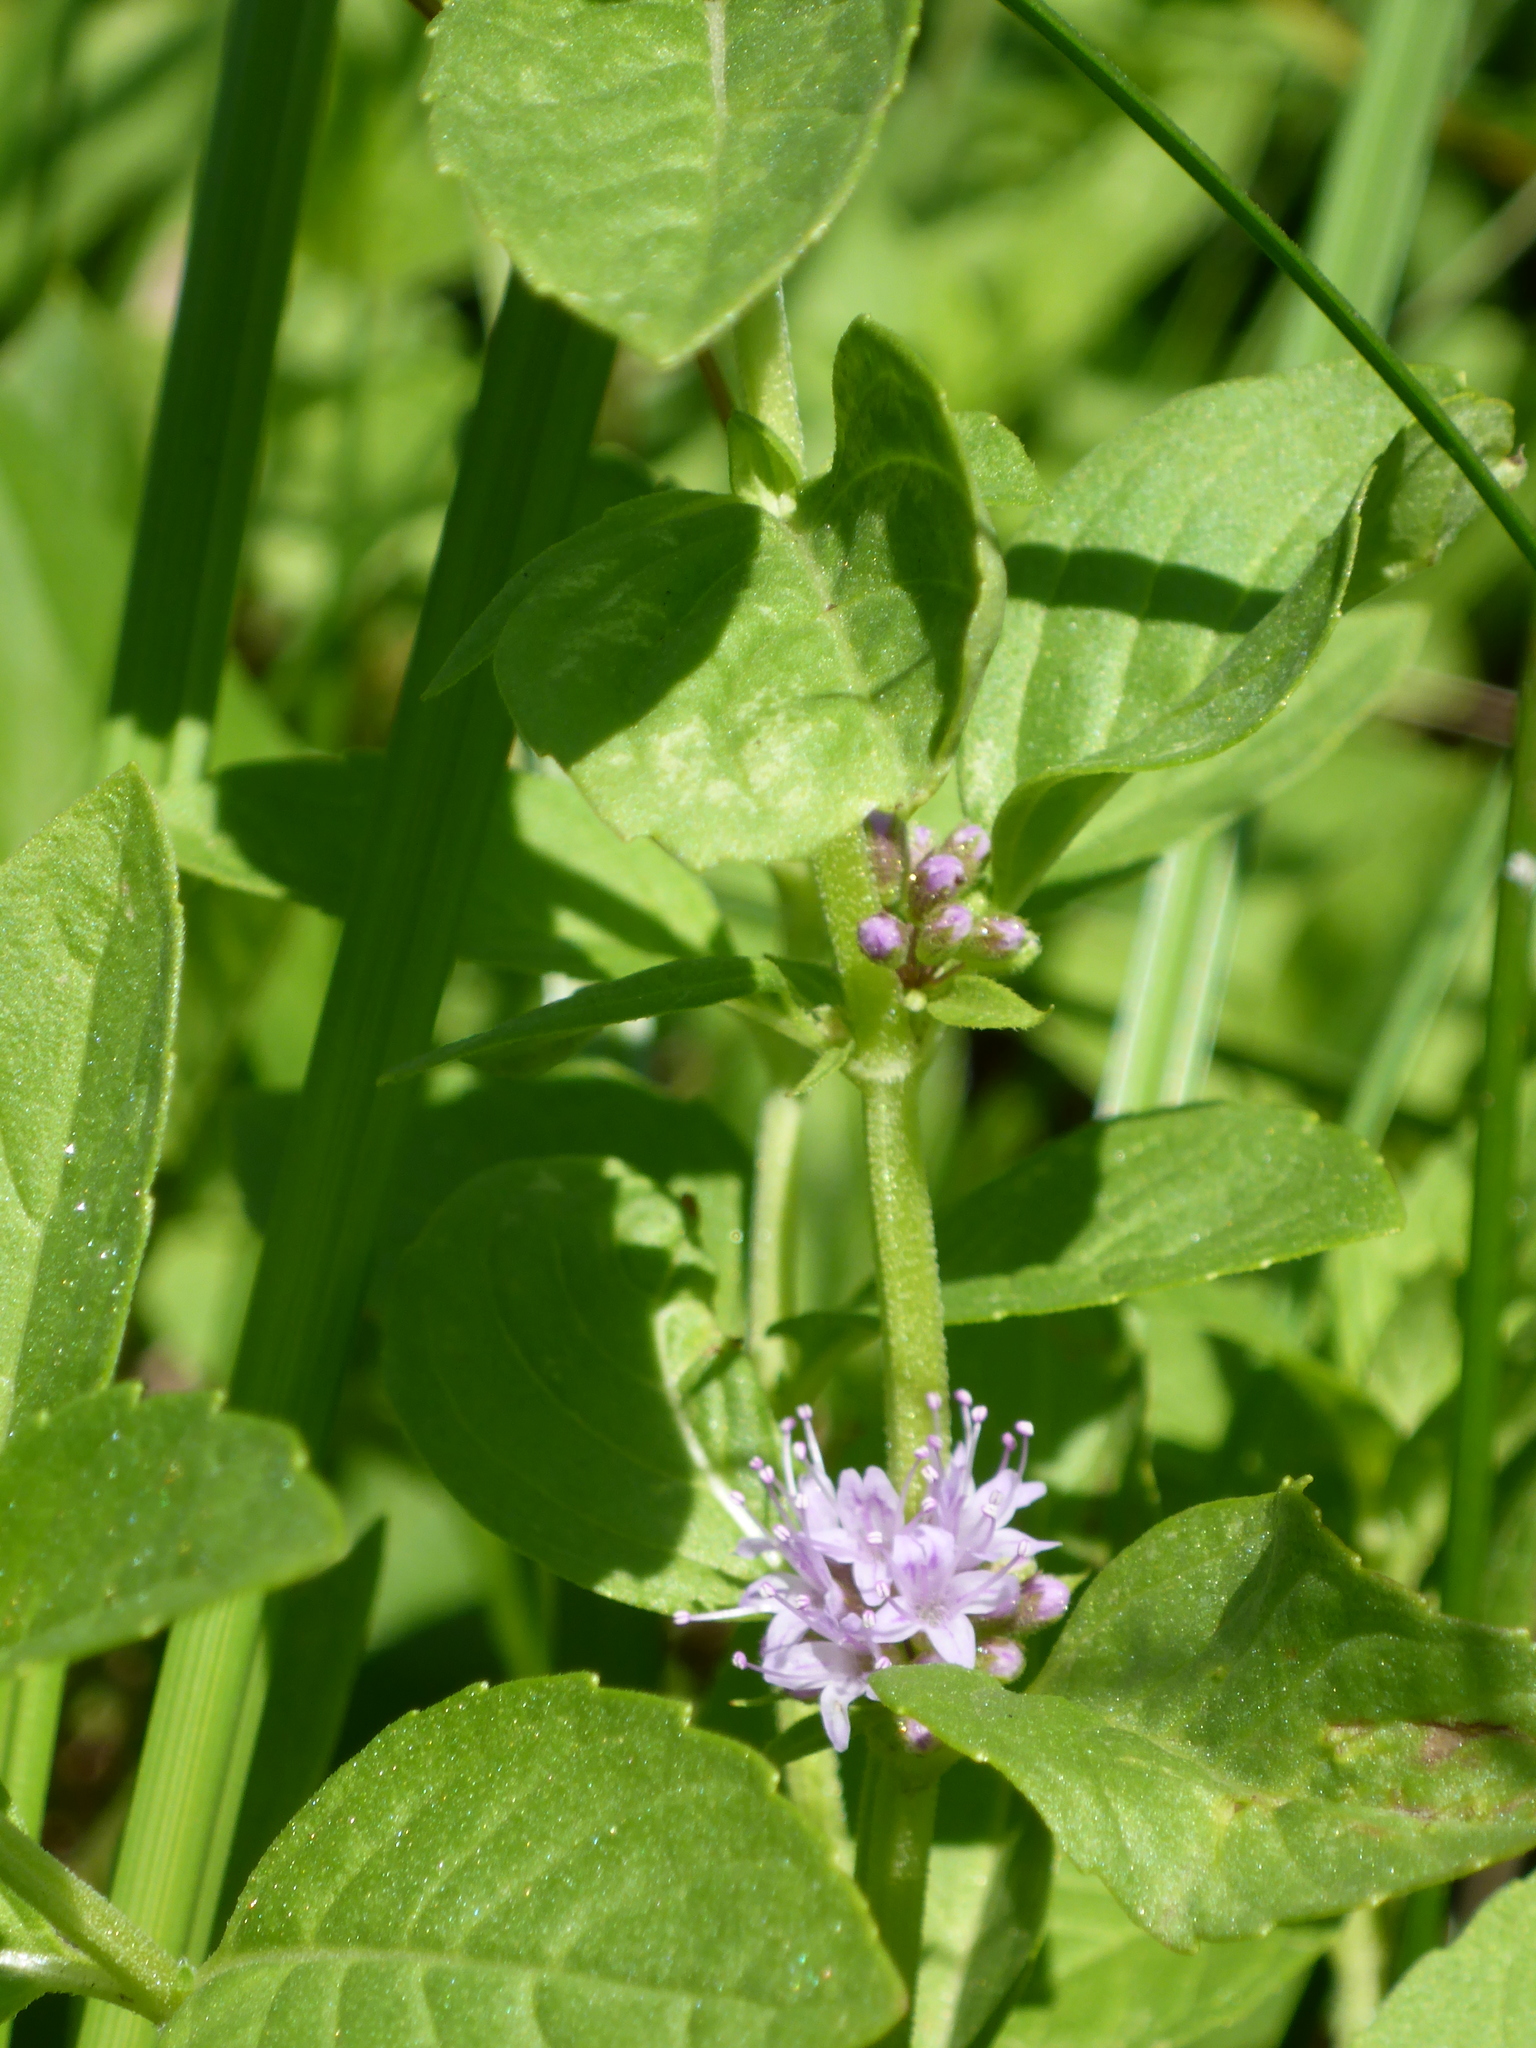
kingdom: Plantae
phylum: Tracheophyta
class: Magnoliopsida
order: Lamiales
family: Lamiaceae
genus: Mentha
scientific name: Mentha canadensis
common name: American corn mint
